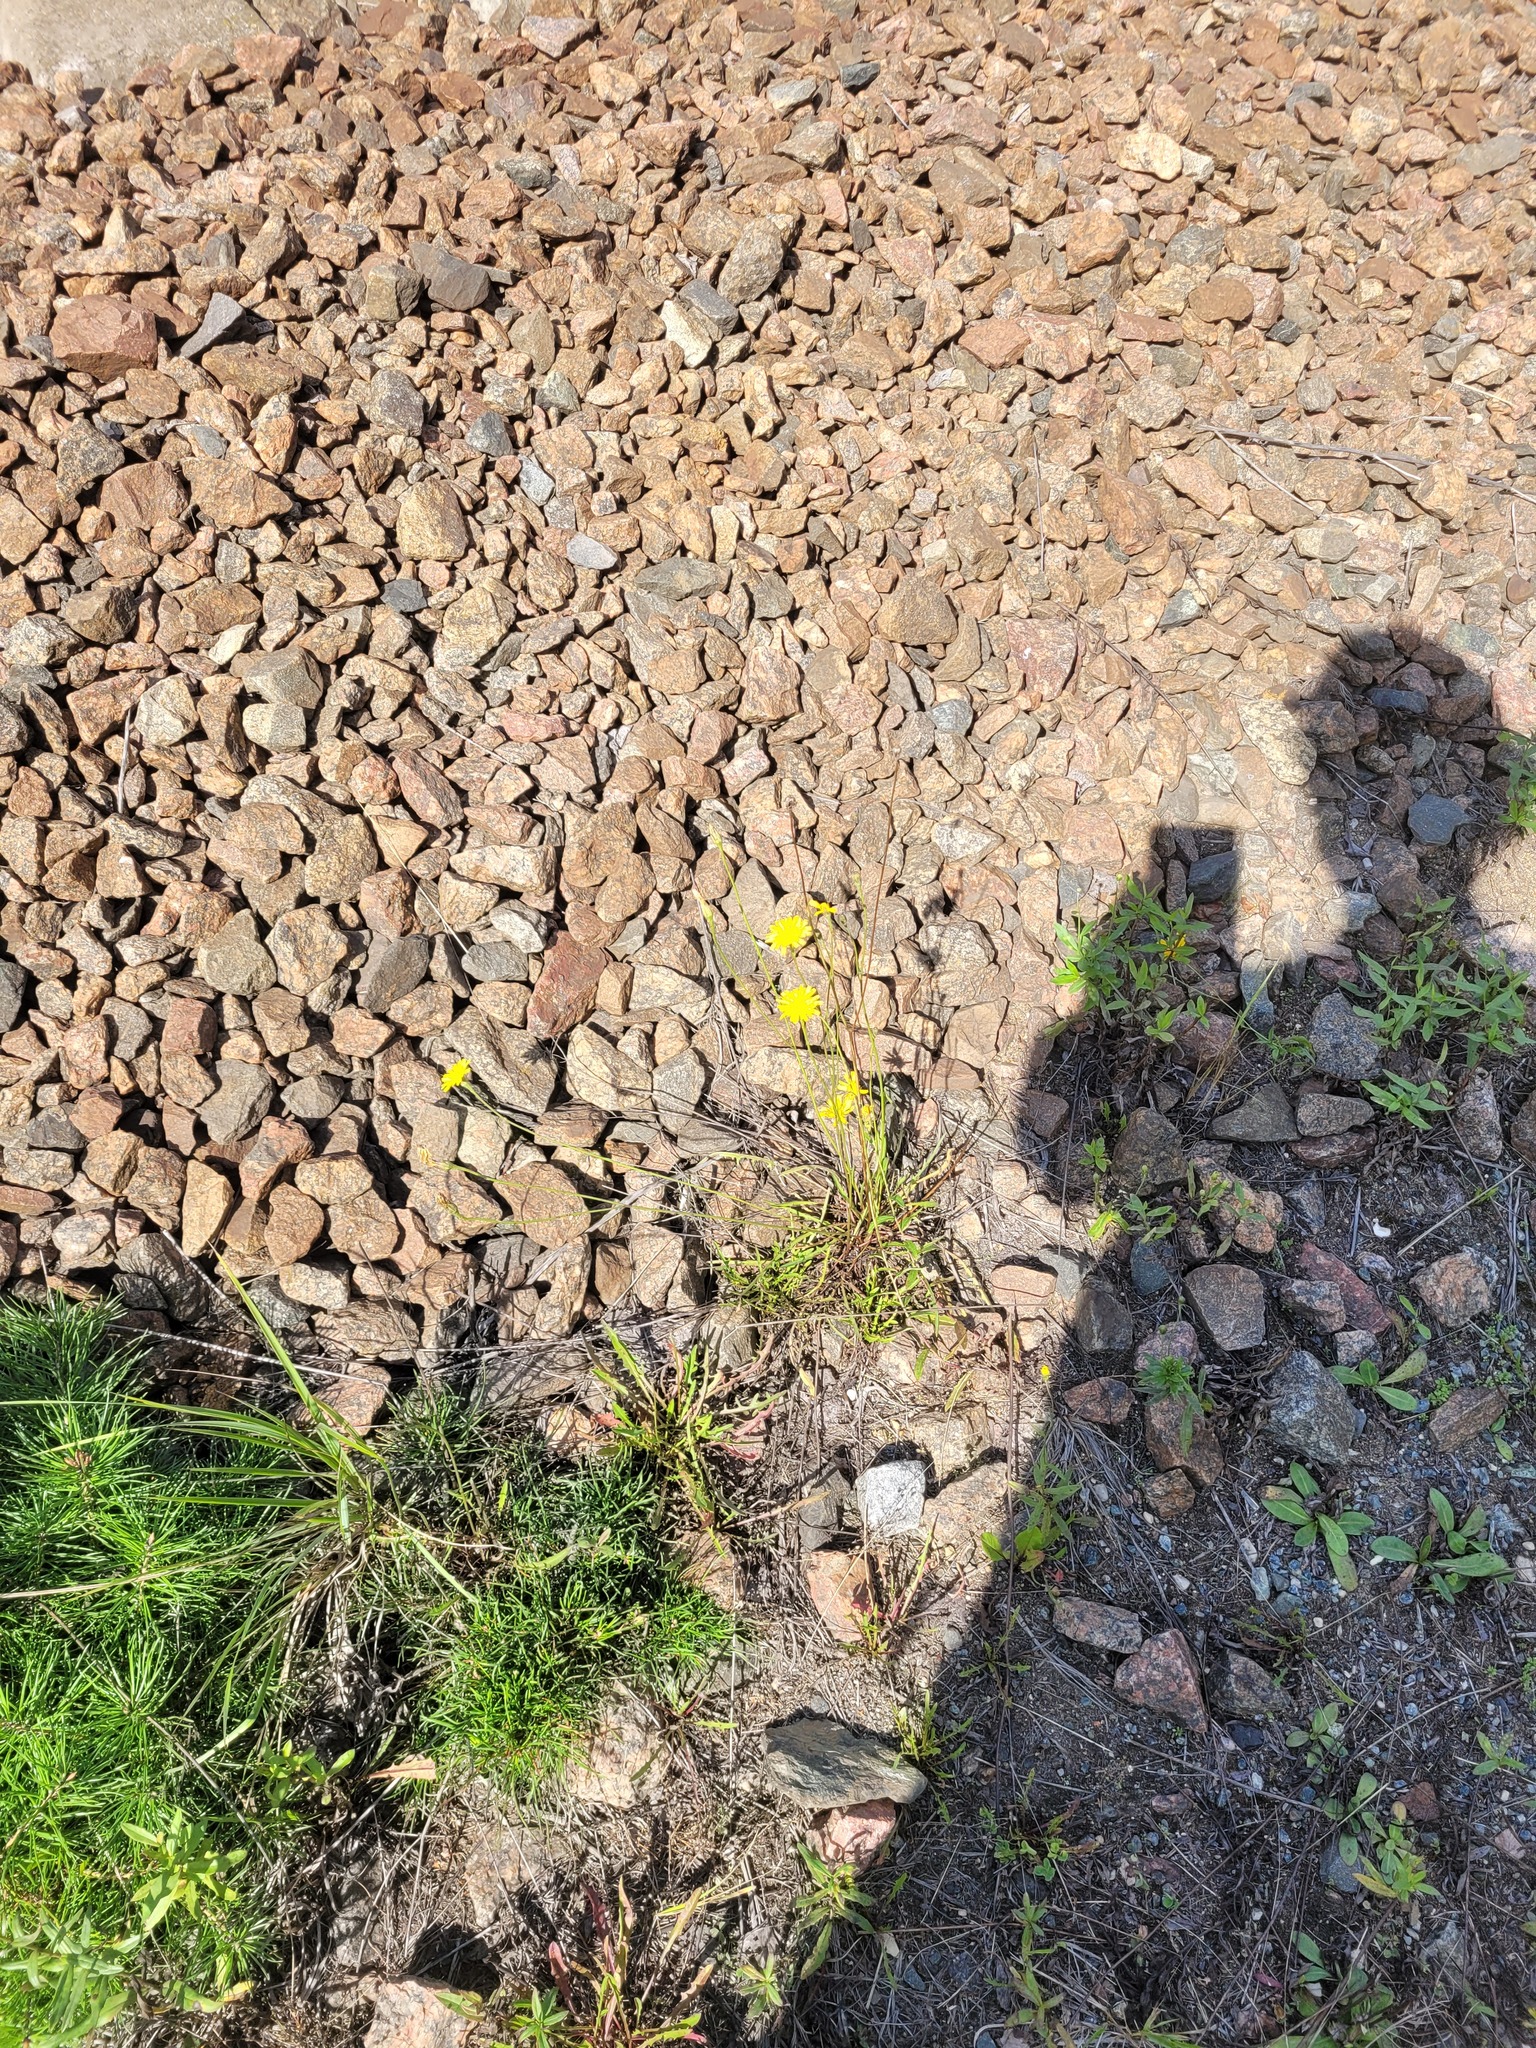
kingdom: Plantae
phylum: Tracheophyta
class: Magnoliopsida
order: Asterales
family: Asteraceae
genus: Scorzoneroides
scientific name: Scorzoneroides autumnalis
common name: Autumn hawkbit
